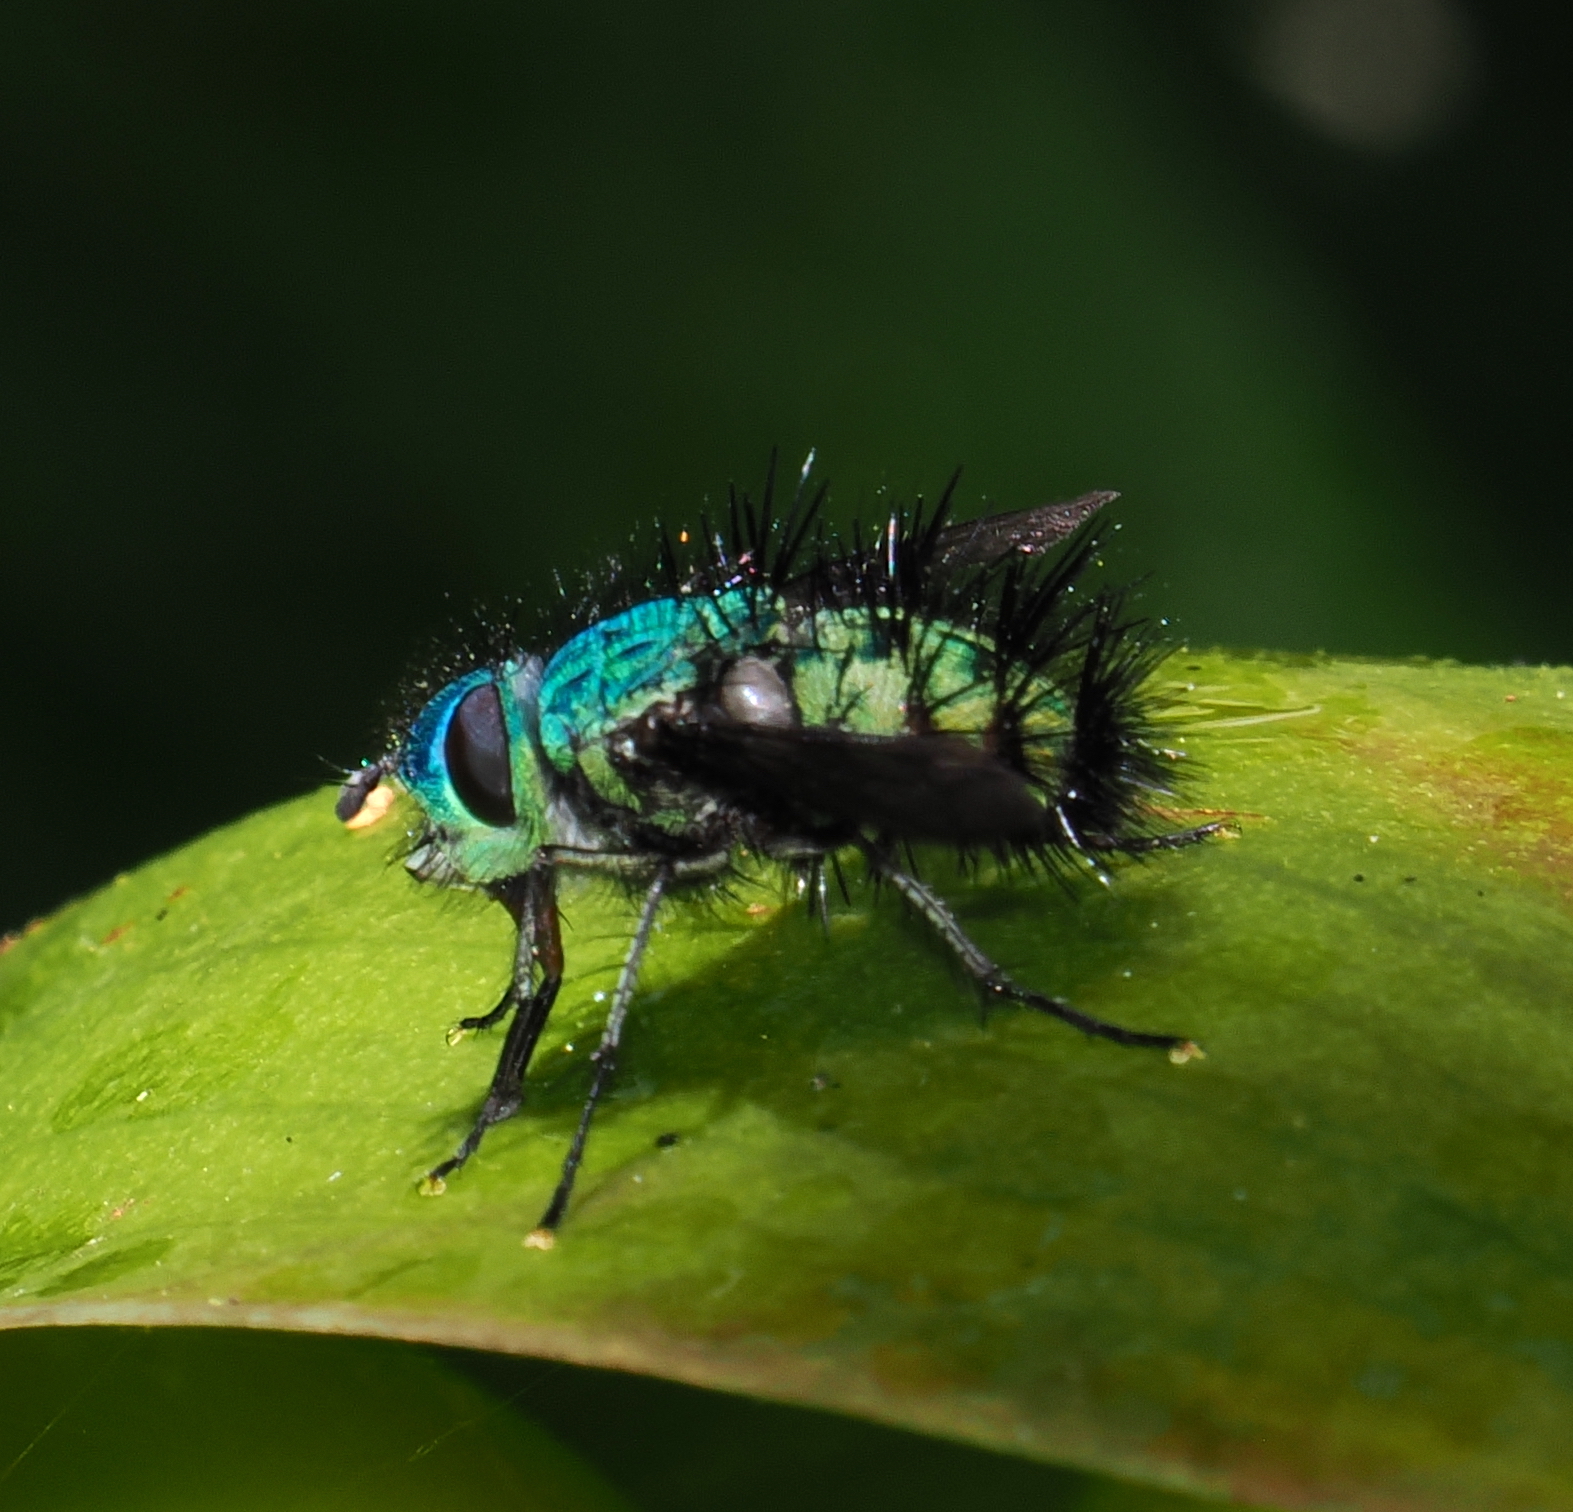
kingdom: Animalia
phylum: Arthropoda
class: Insecta
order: Diptera
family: Tachinidae
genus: Vertepalpus
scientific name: Vertepalpus verdans
